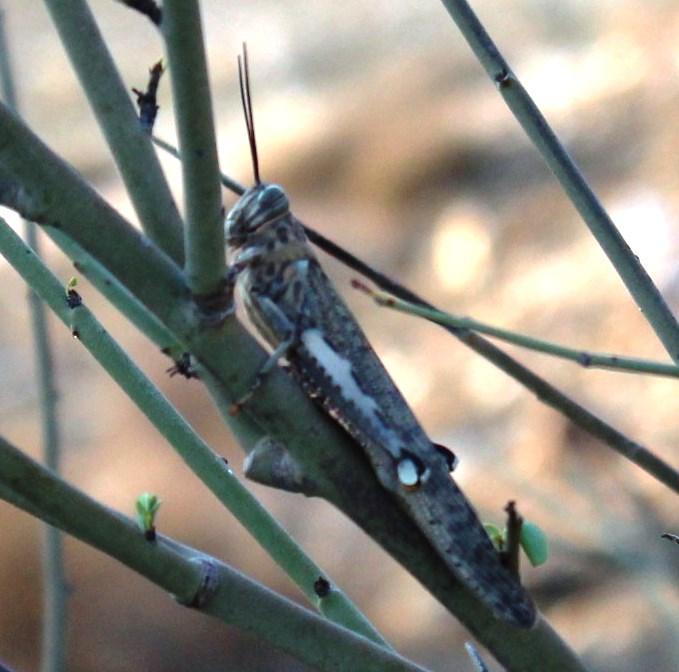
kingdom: Animalia
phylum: Arthropoda
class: Insecta
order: Orthoptera
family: Acrididae
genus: Anacridium
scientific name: Anacridium moestum
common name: Tree locust
